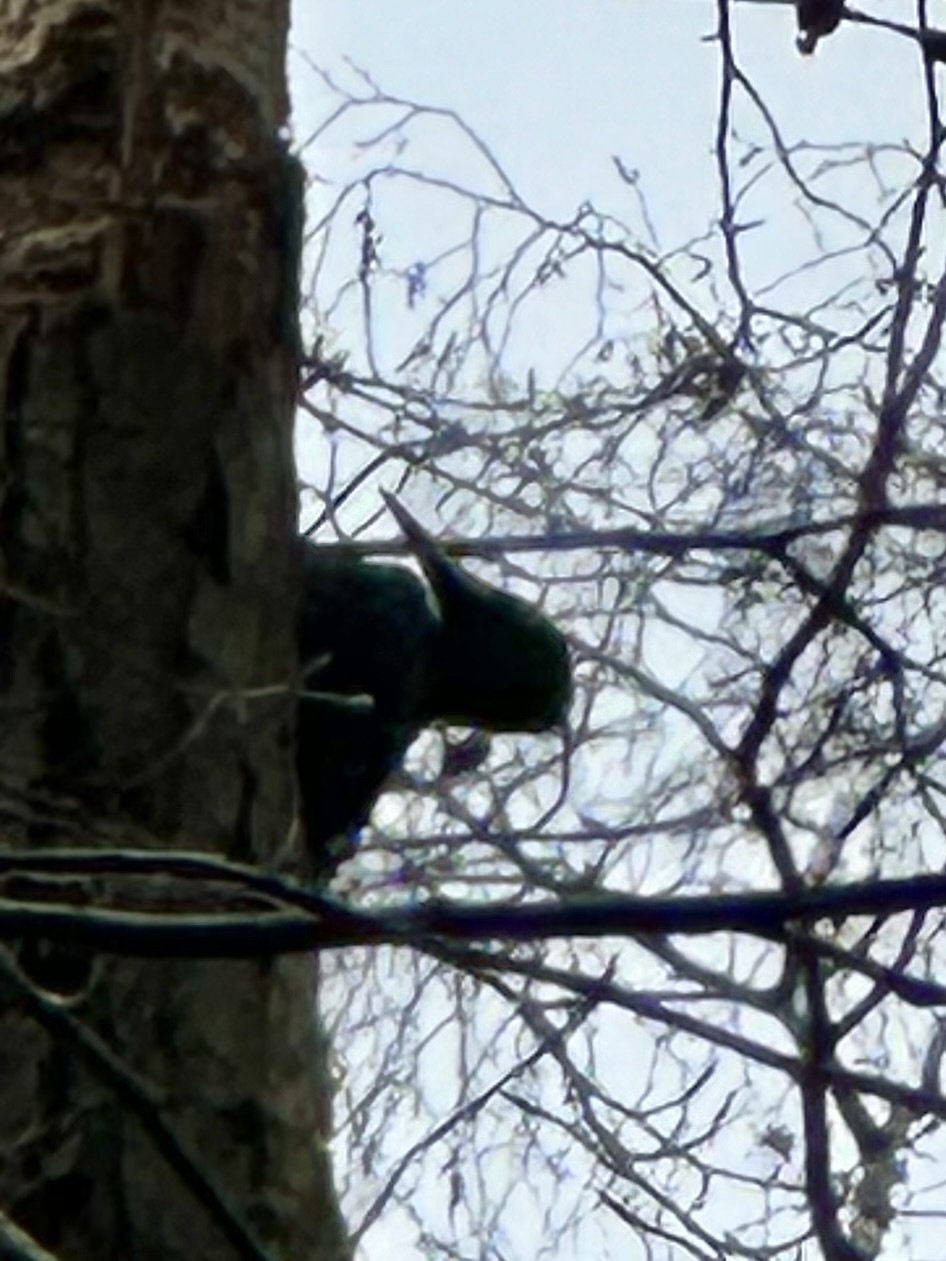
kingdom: Animalia
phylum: Chordata
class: Aves
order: Piciformes
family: Picidae
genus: Dryocopus
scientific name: Dryocopus martius
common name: Black woodpecker
